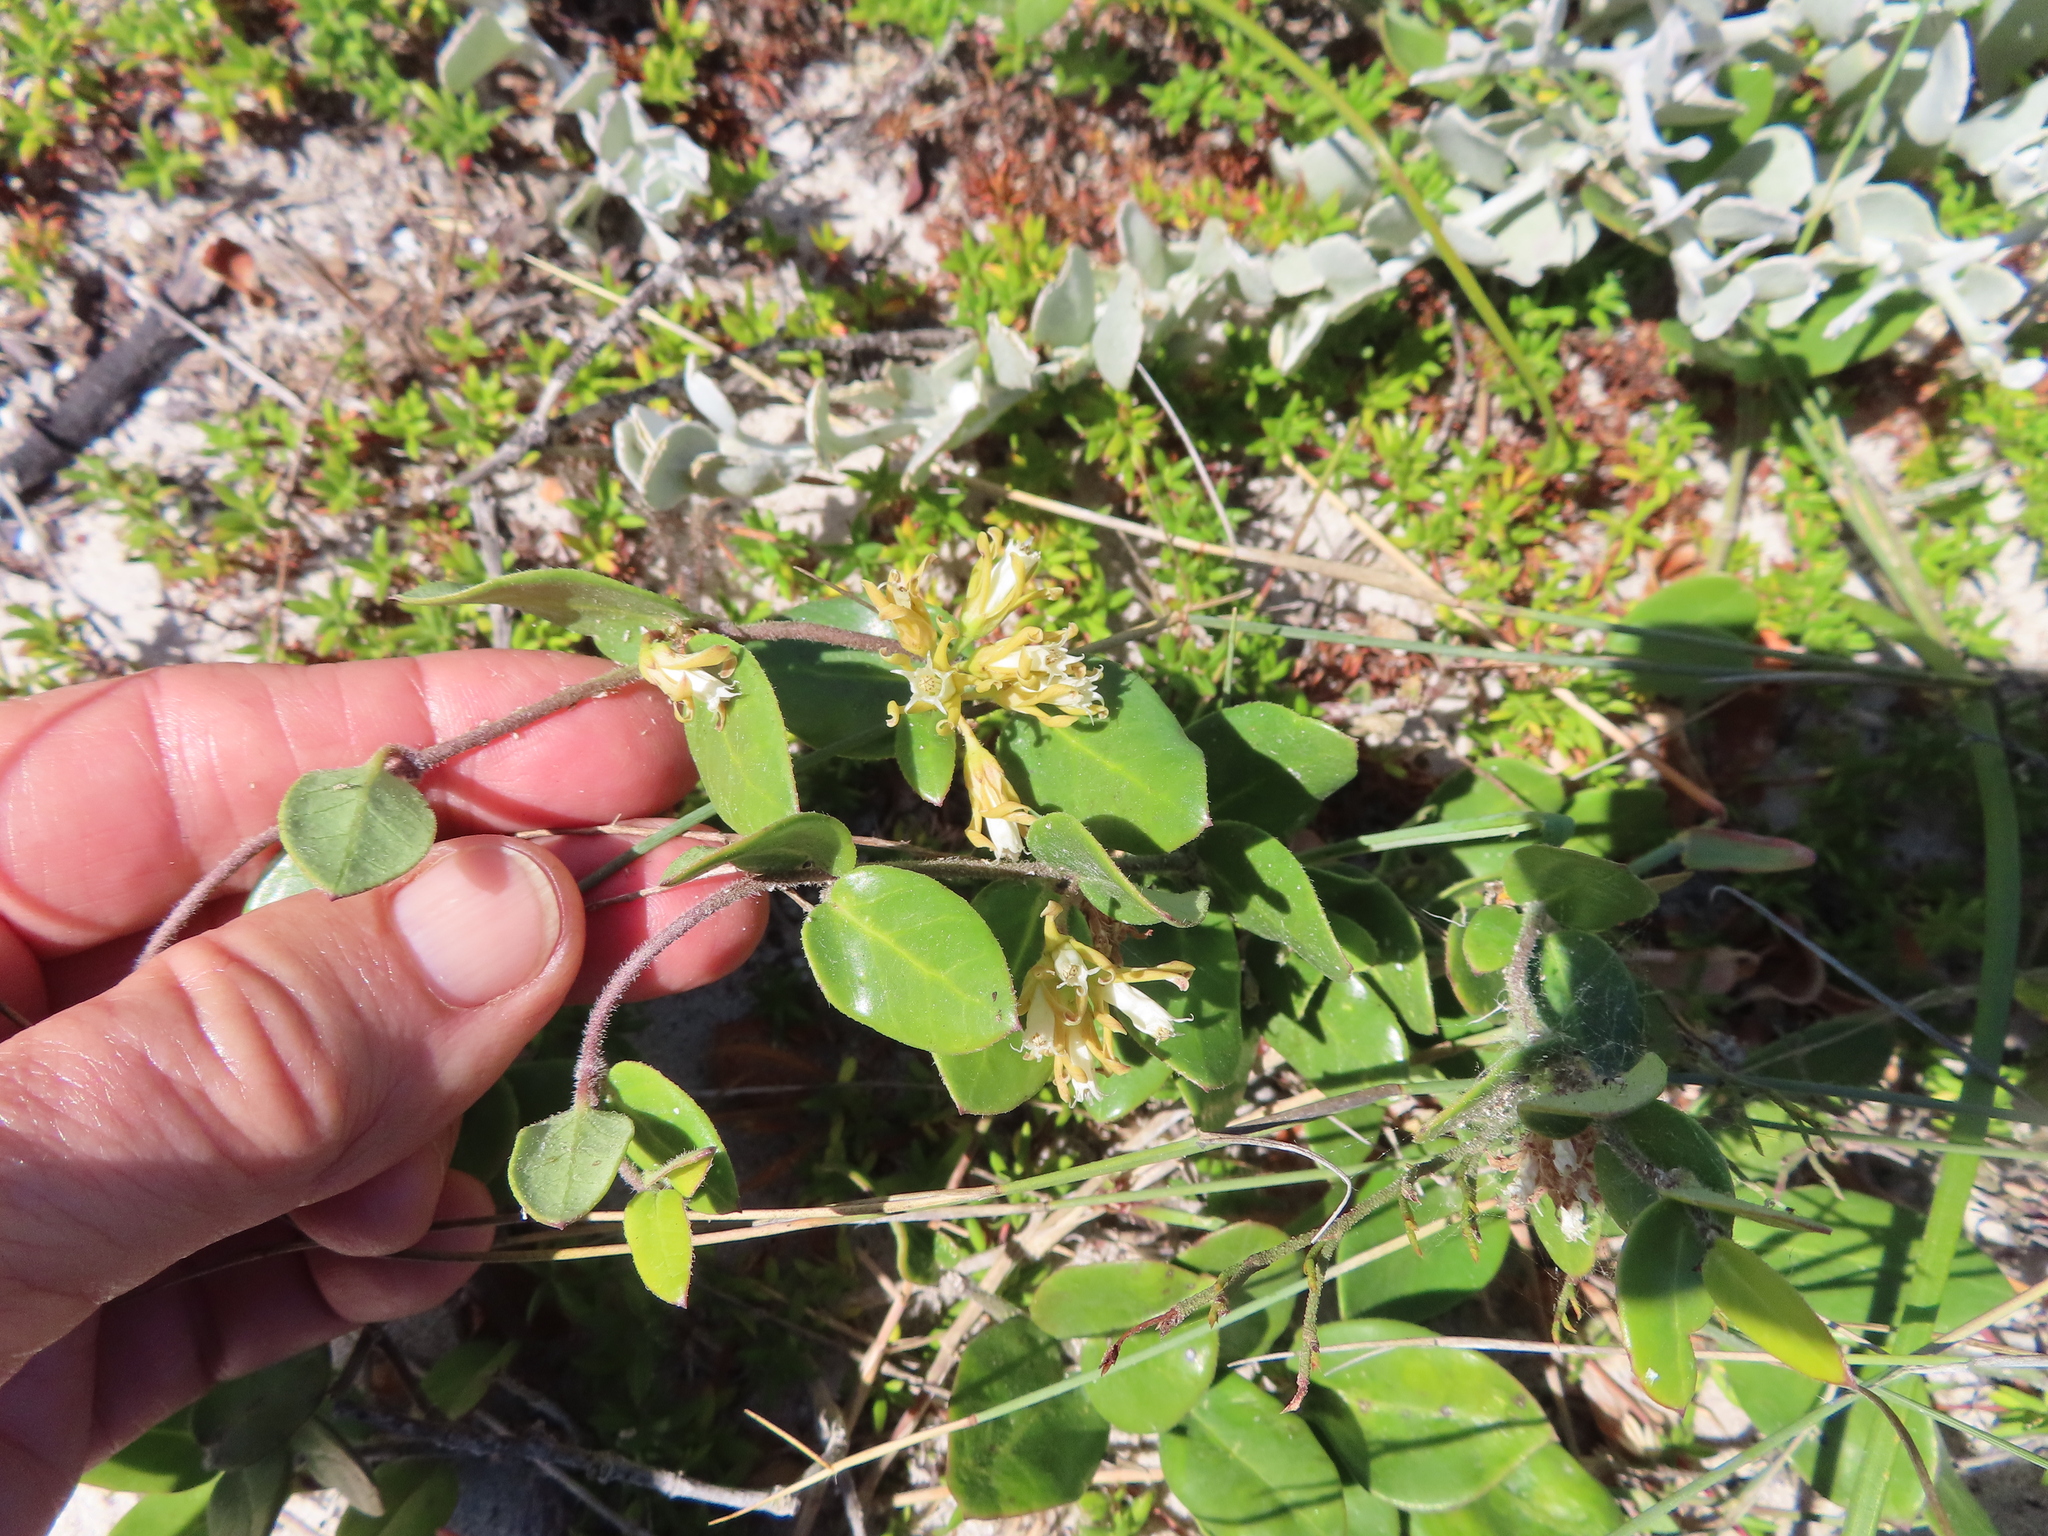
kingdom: Plantae
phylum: Tracheophyta
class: Magnoliopsida
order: Gentianales
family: Apocynaceae
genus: Cynanchum
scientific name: Cynanchum africanum
